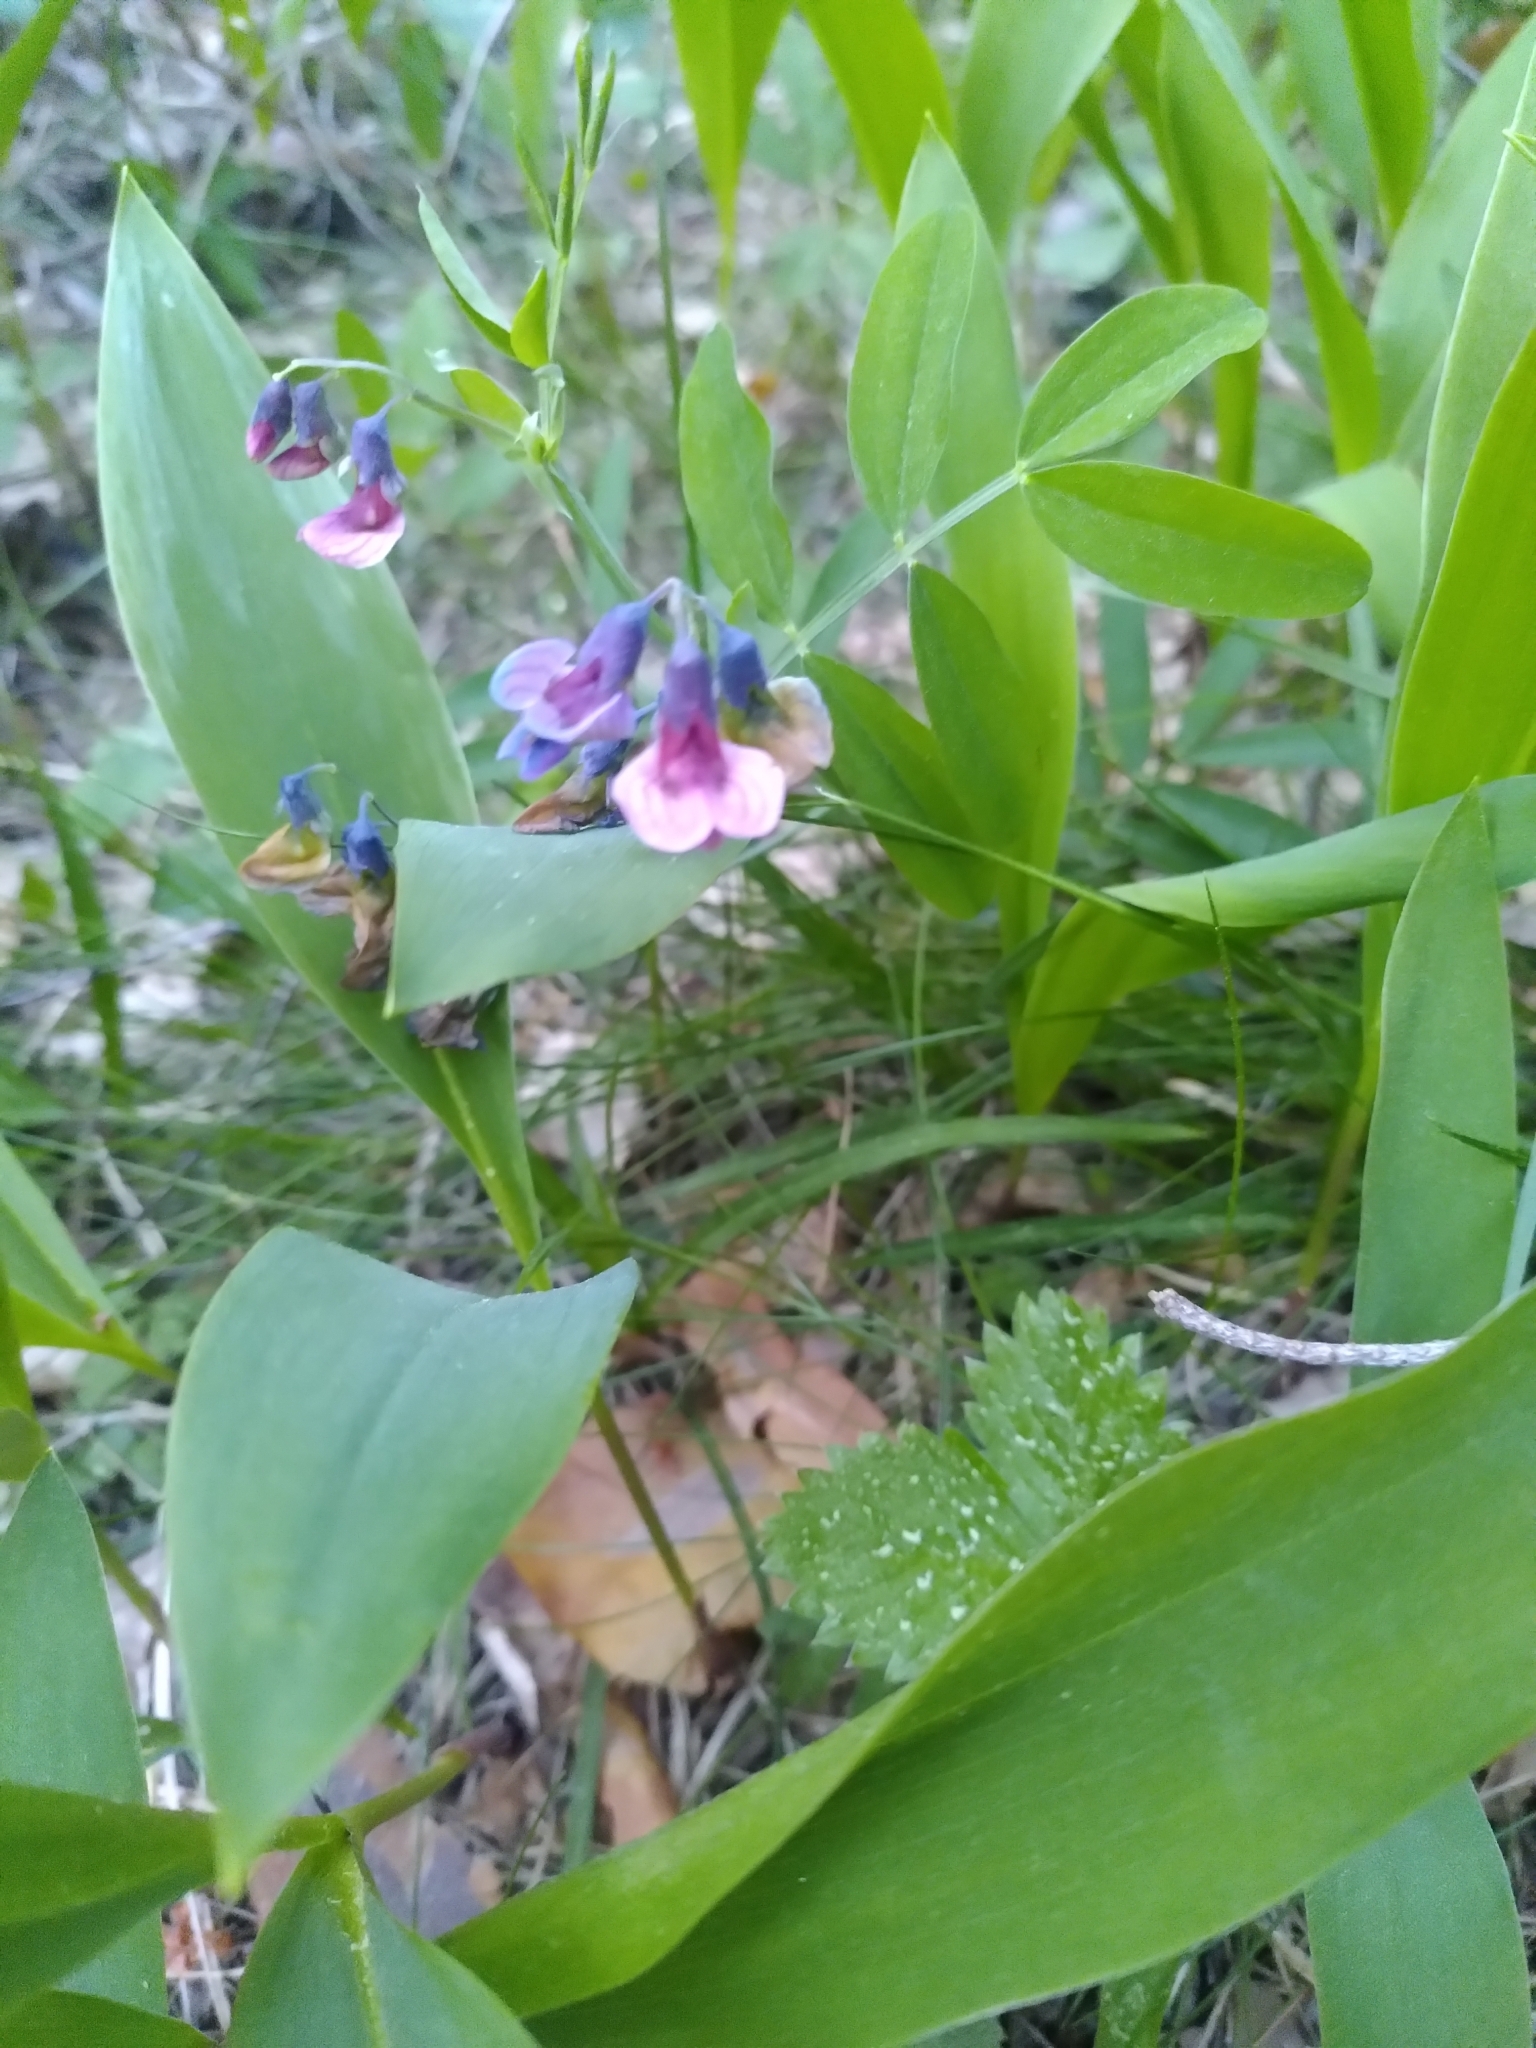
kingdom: Plantae
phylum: Tracheophyta
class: Magnoliopsida
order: Fabales
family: Fabaceae
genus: Lathyrus
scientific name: Lathyrus linifolius
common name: Bitter-vetch
